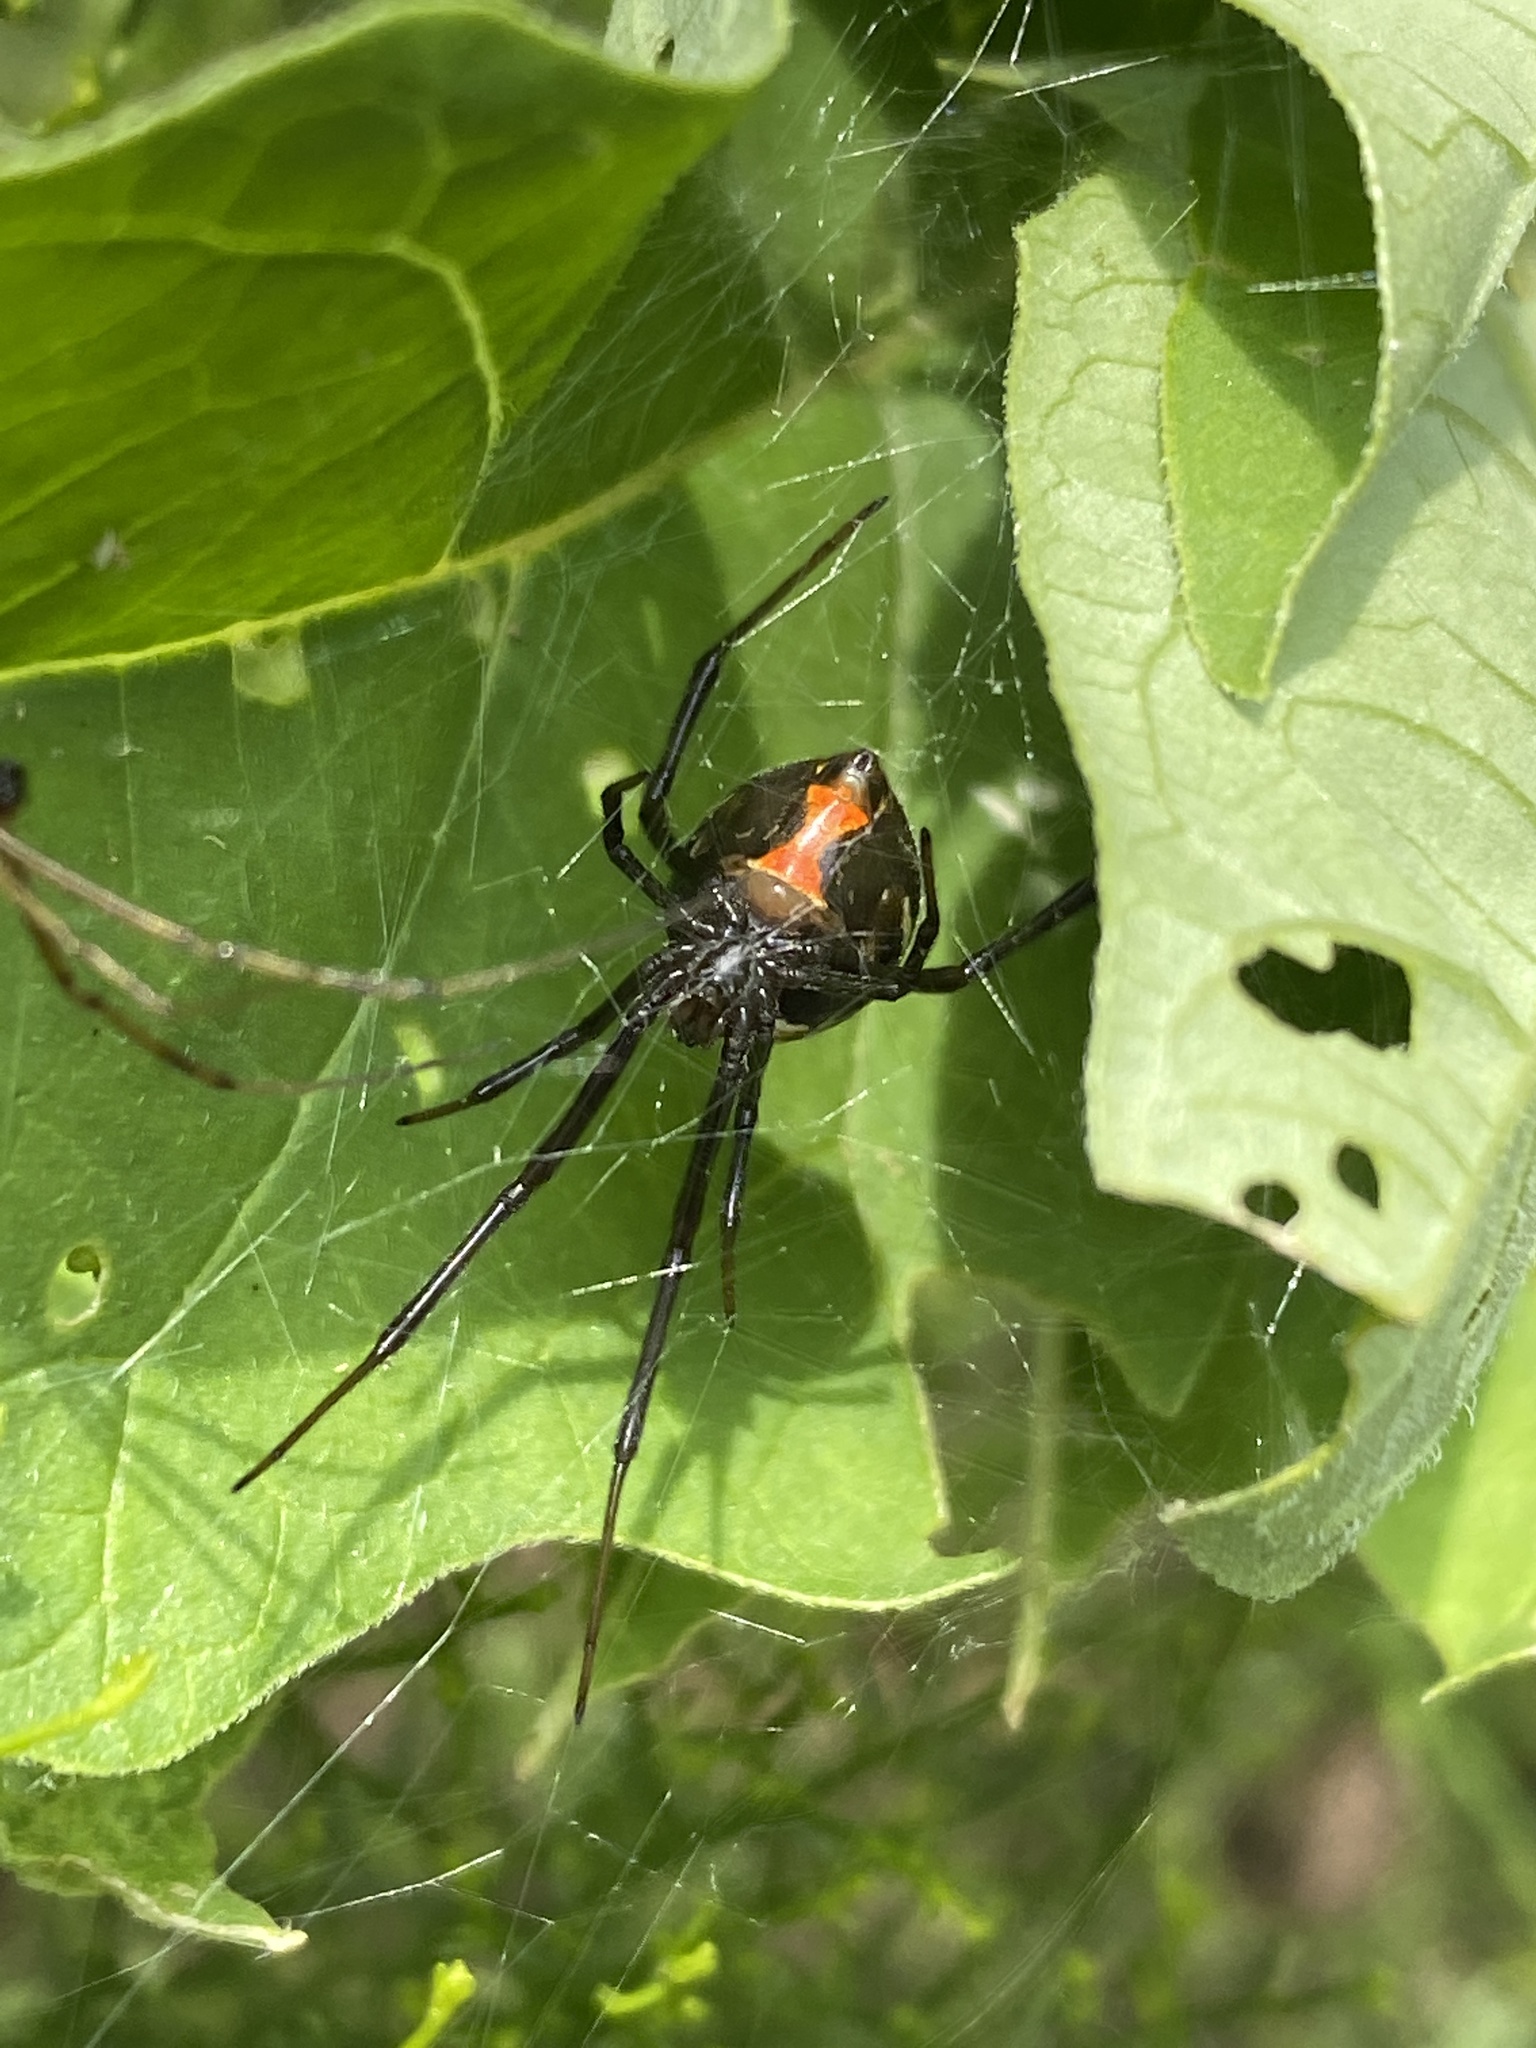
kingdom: Animalia
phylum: Arthropoda
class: Arachnida
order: Araneae
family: Theridiidae
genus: Latrodectus
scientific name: Latrodectus hesperus
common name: Western black widow
